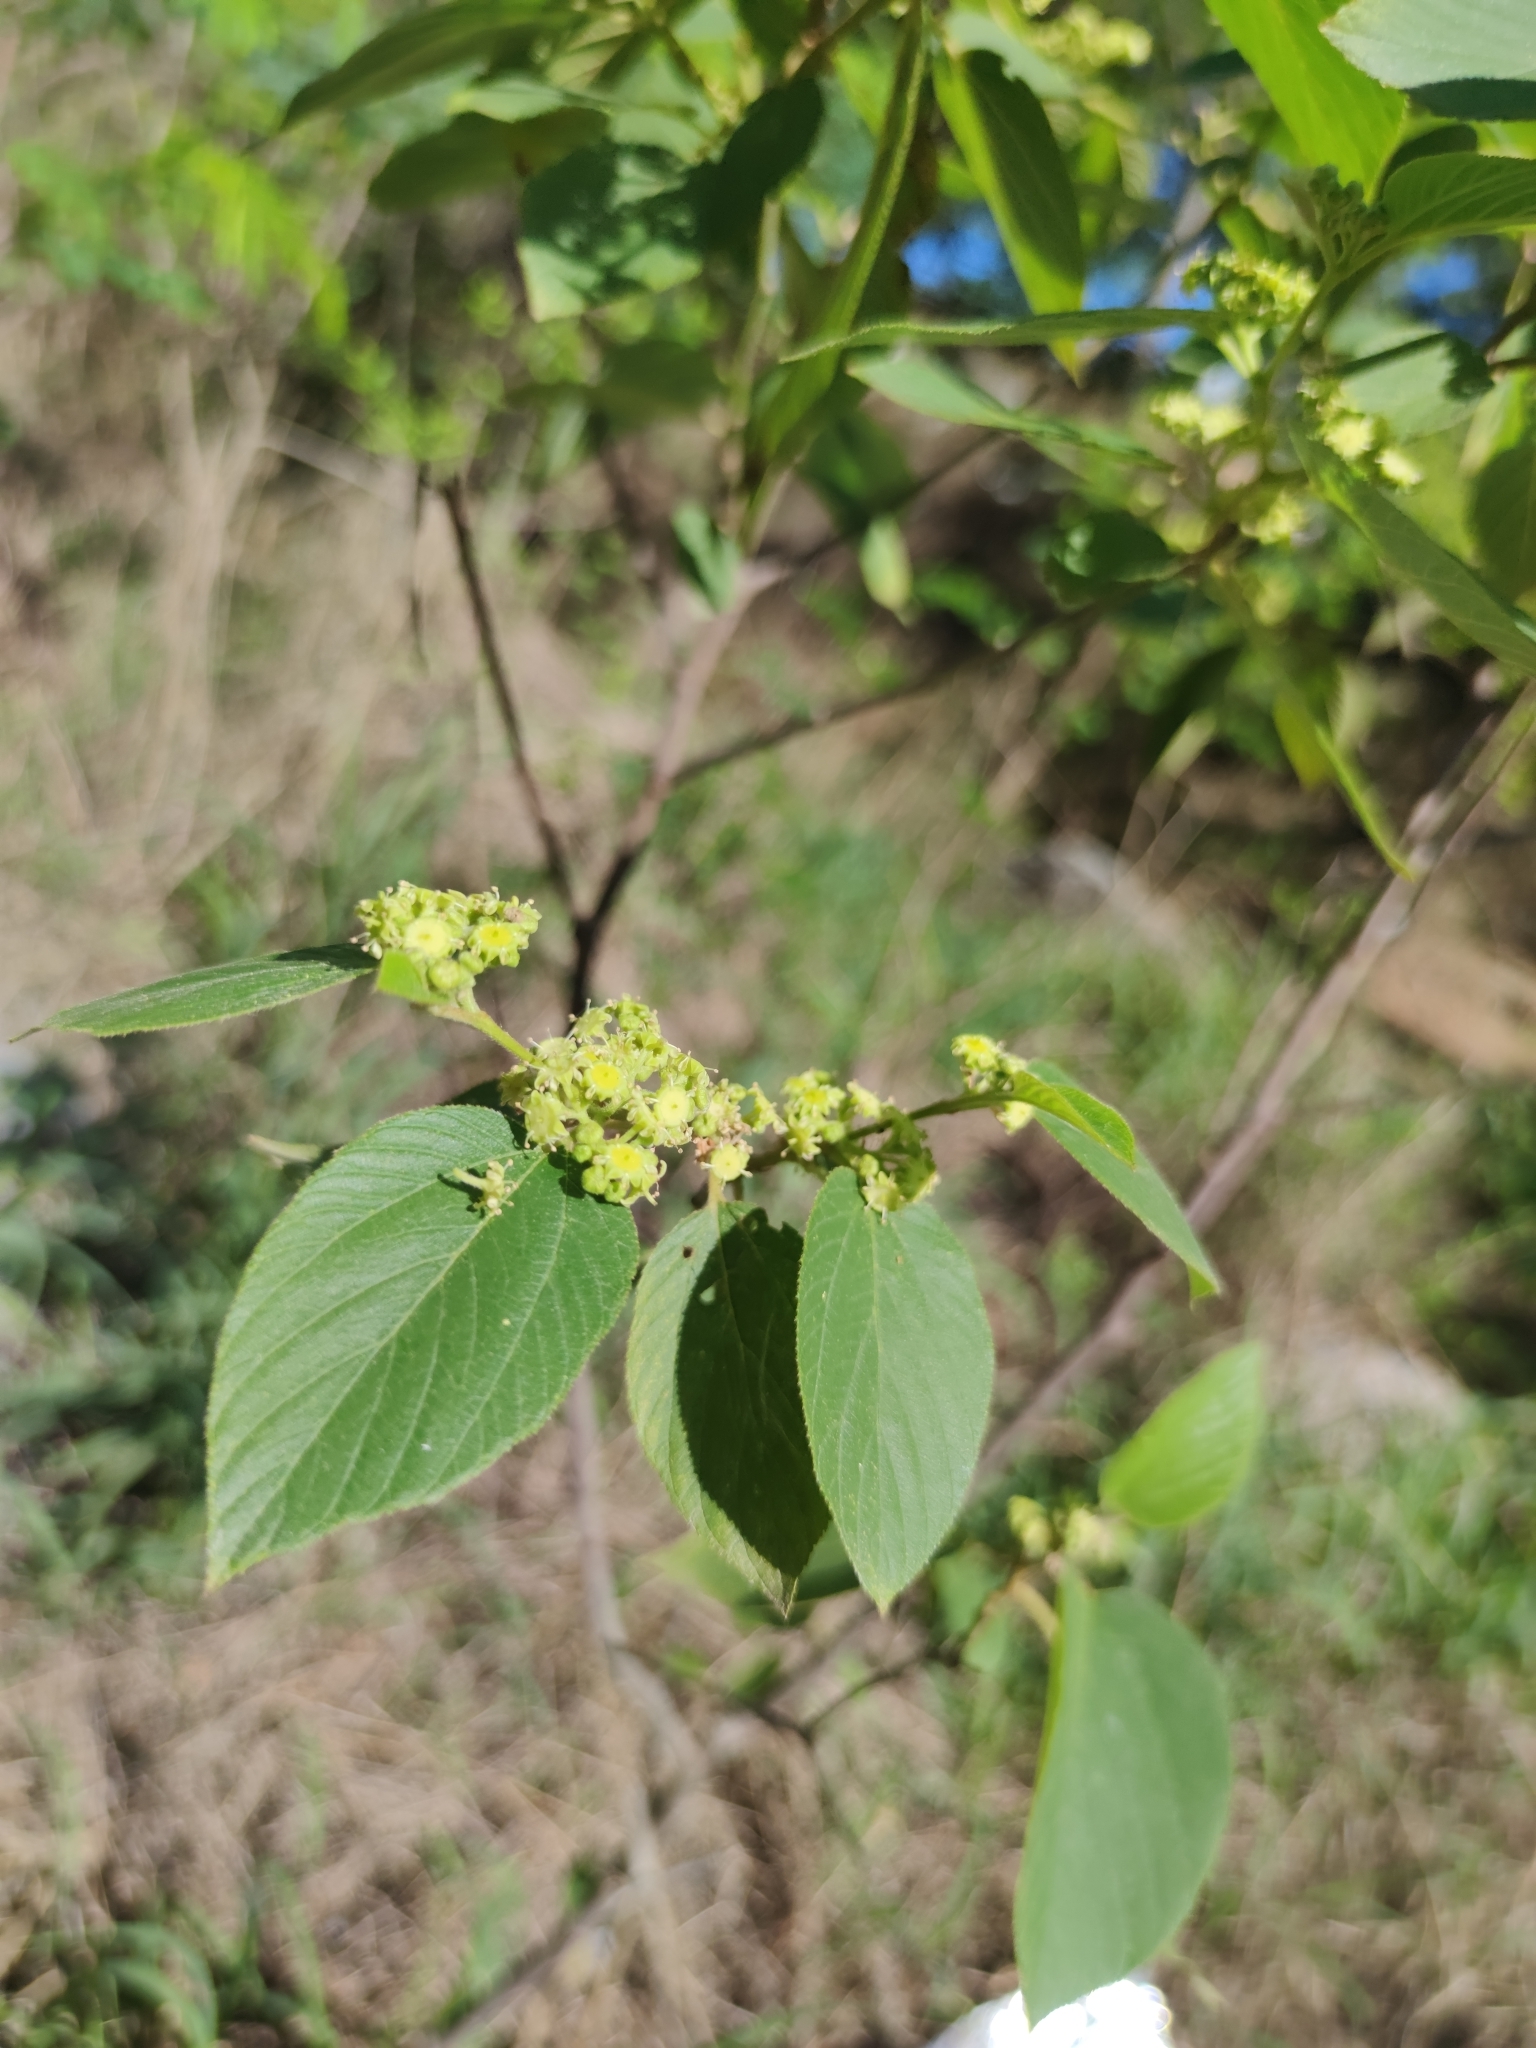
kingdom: Plantae
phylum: Tracheophyta
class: Magnoliopsida
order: Rosales
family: Rhamnaceae
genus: Colubrina
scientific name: Colubrina greggii
